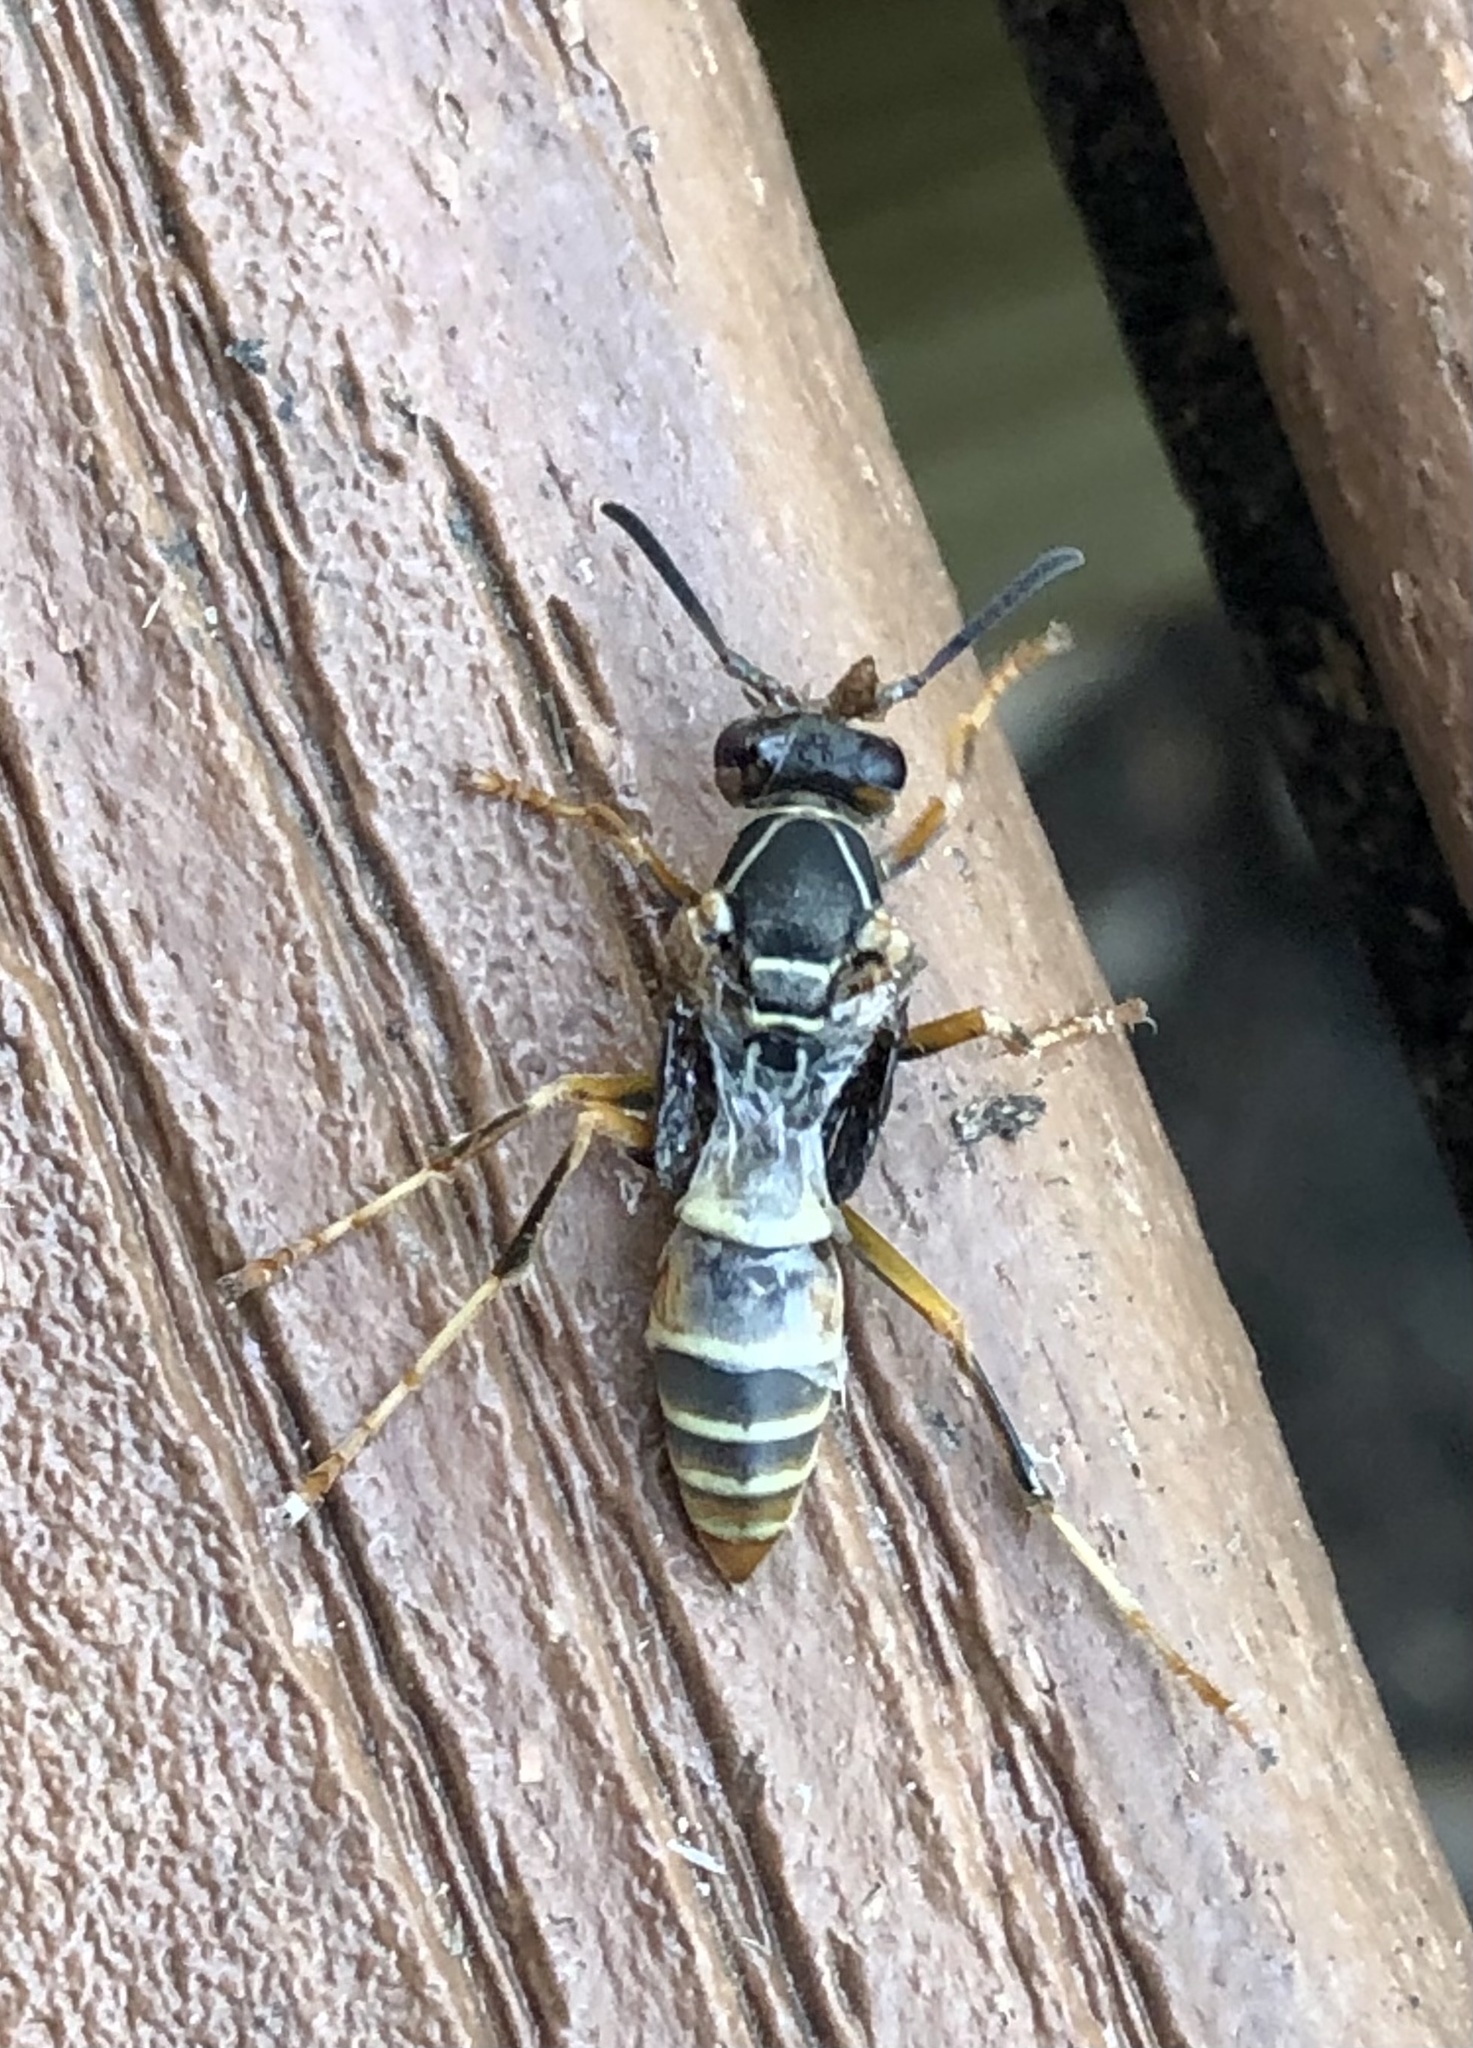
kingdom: Animalia
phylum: Arthropoda
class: Insecta
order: Hymenoptera
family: Eumenidae
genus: Polistes
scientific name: Polistes fuscatus
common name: Dark paper wasp
